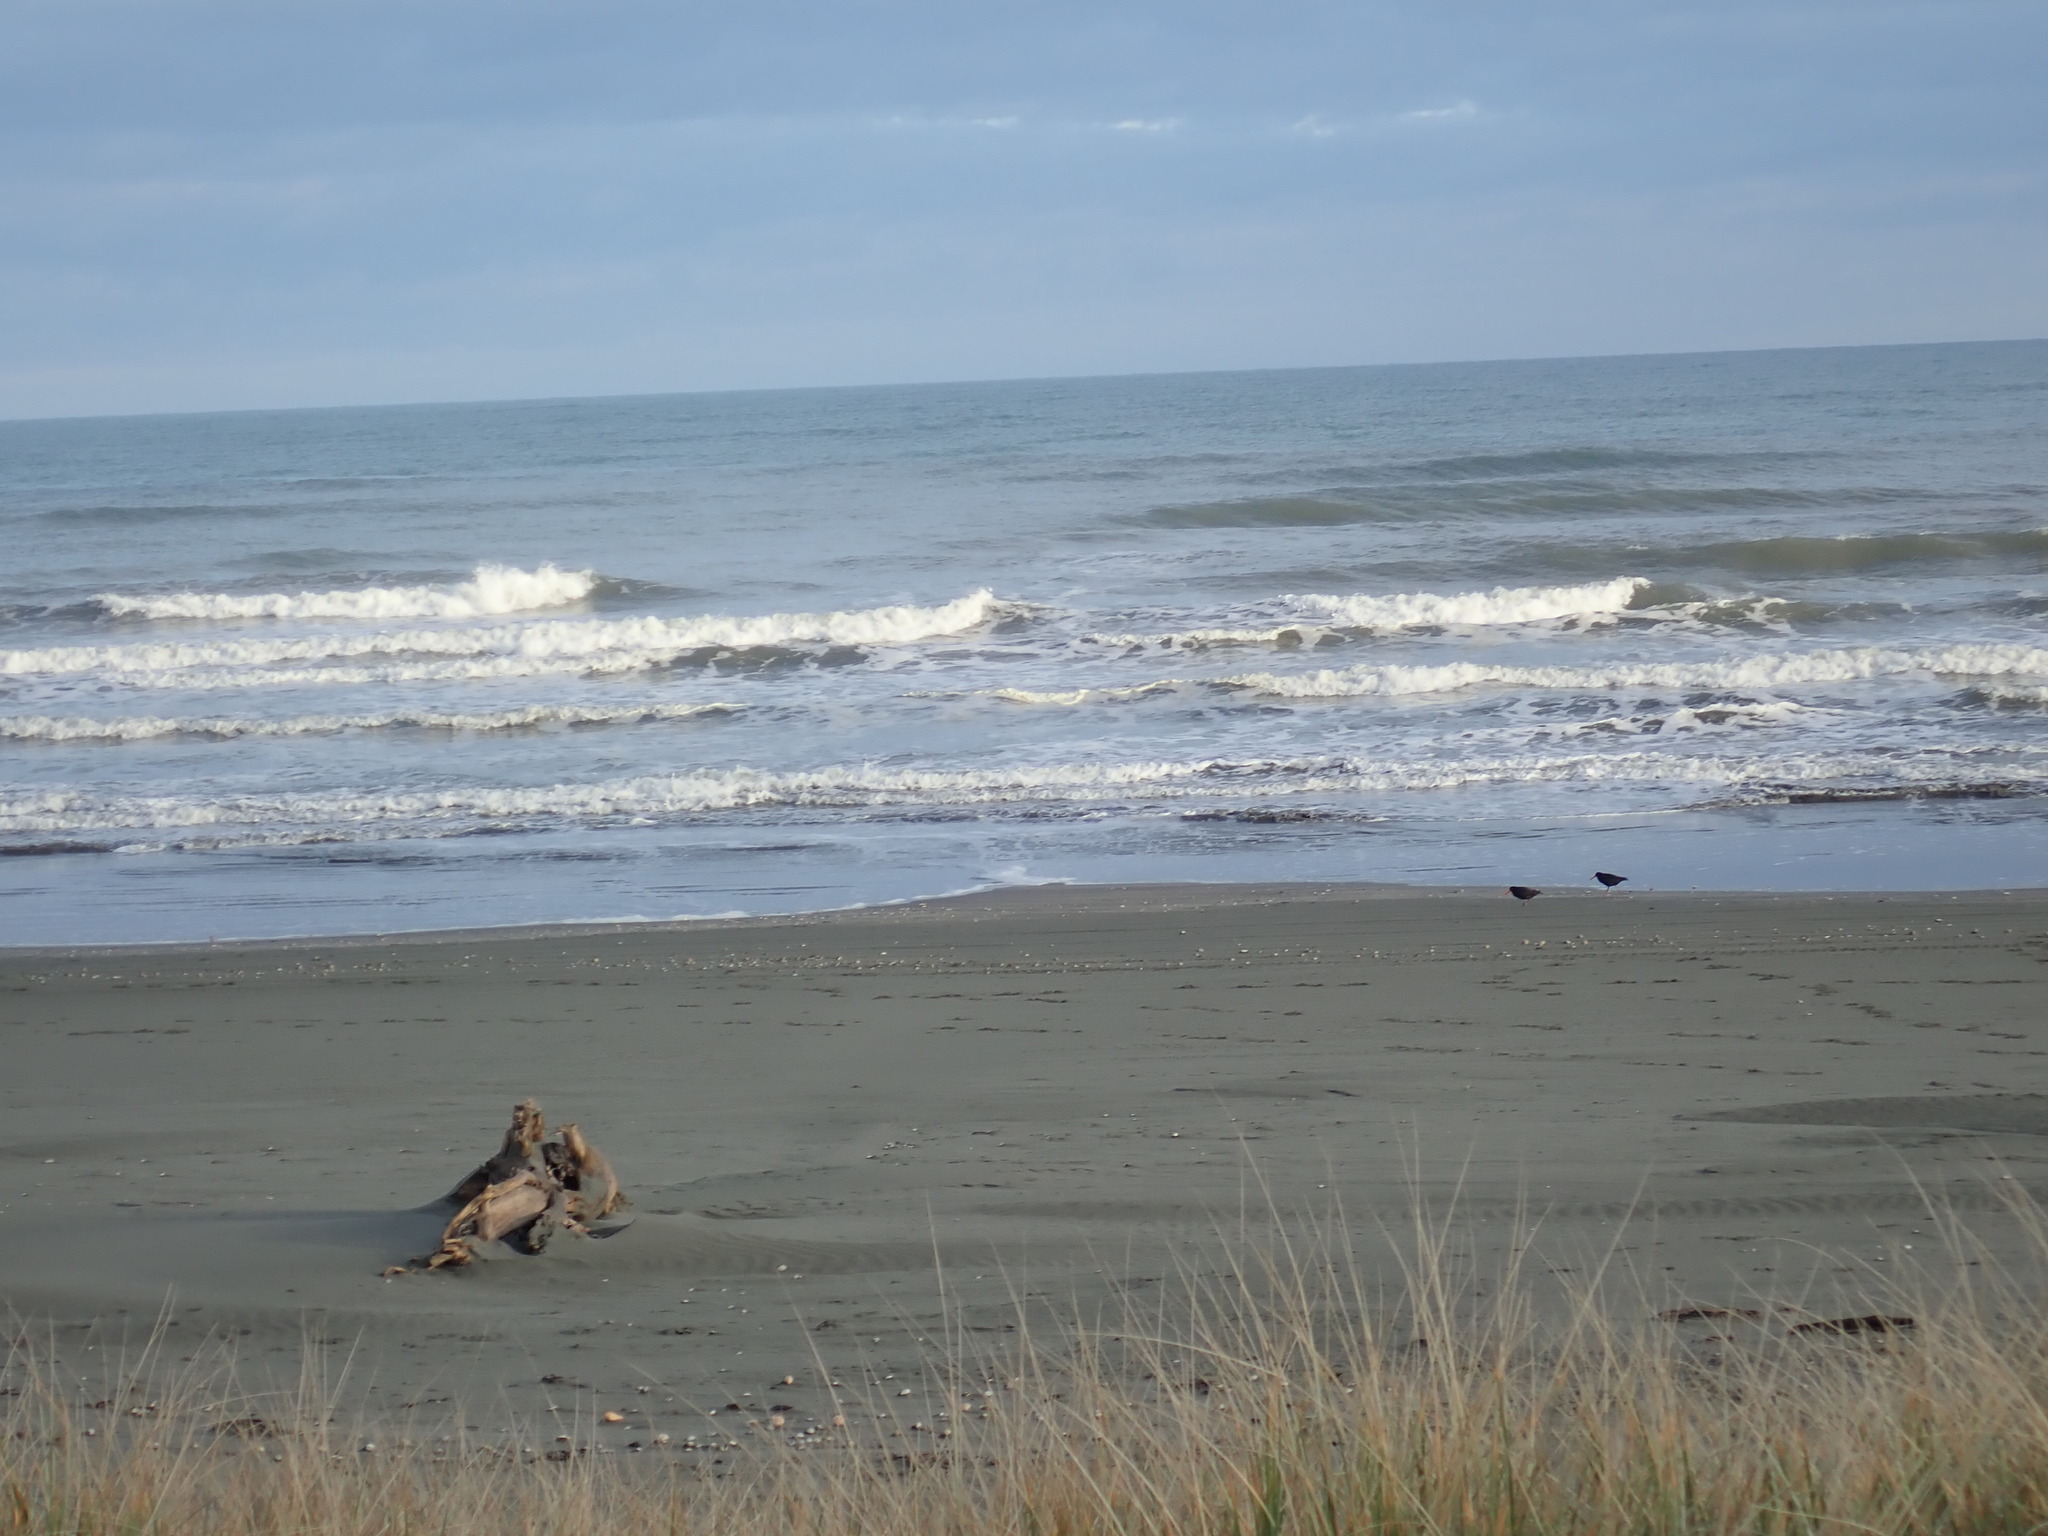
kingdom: Animalia
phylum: Chordata
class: Aves
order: Charadriiformes
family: Haematopodidae
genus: Haematopus
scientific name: Haematopus unicolor
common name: Variable oystercatcher
